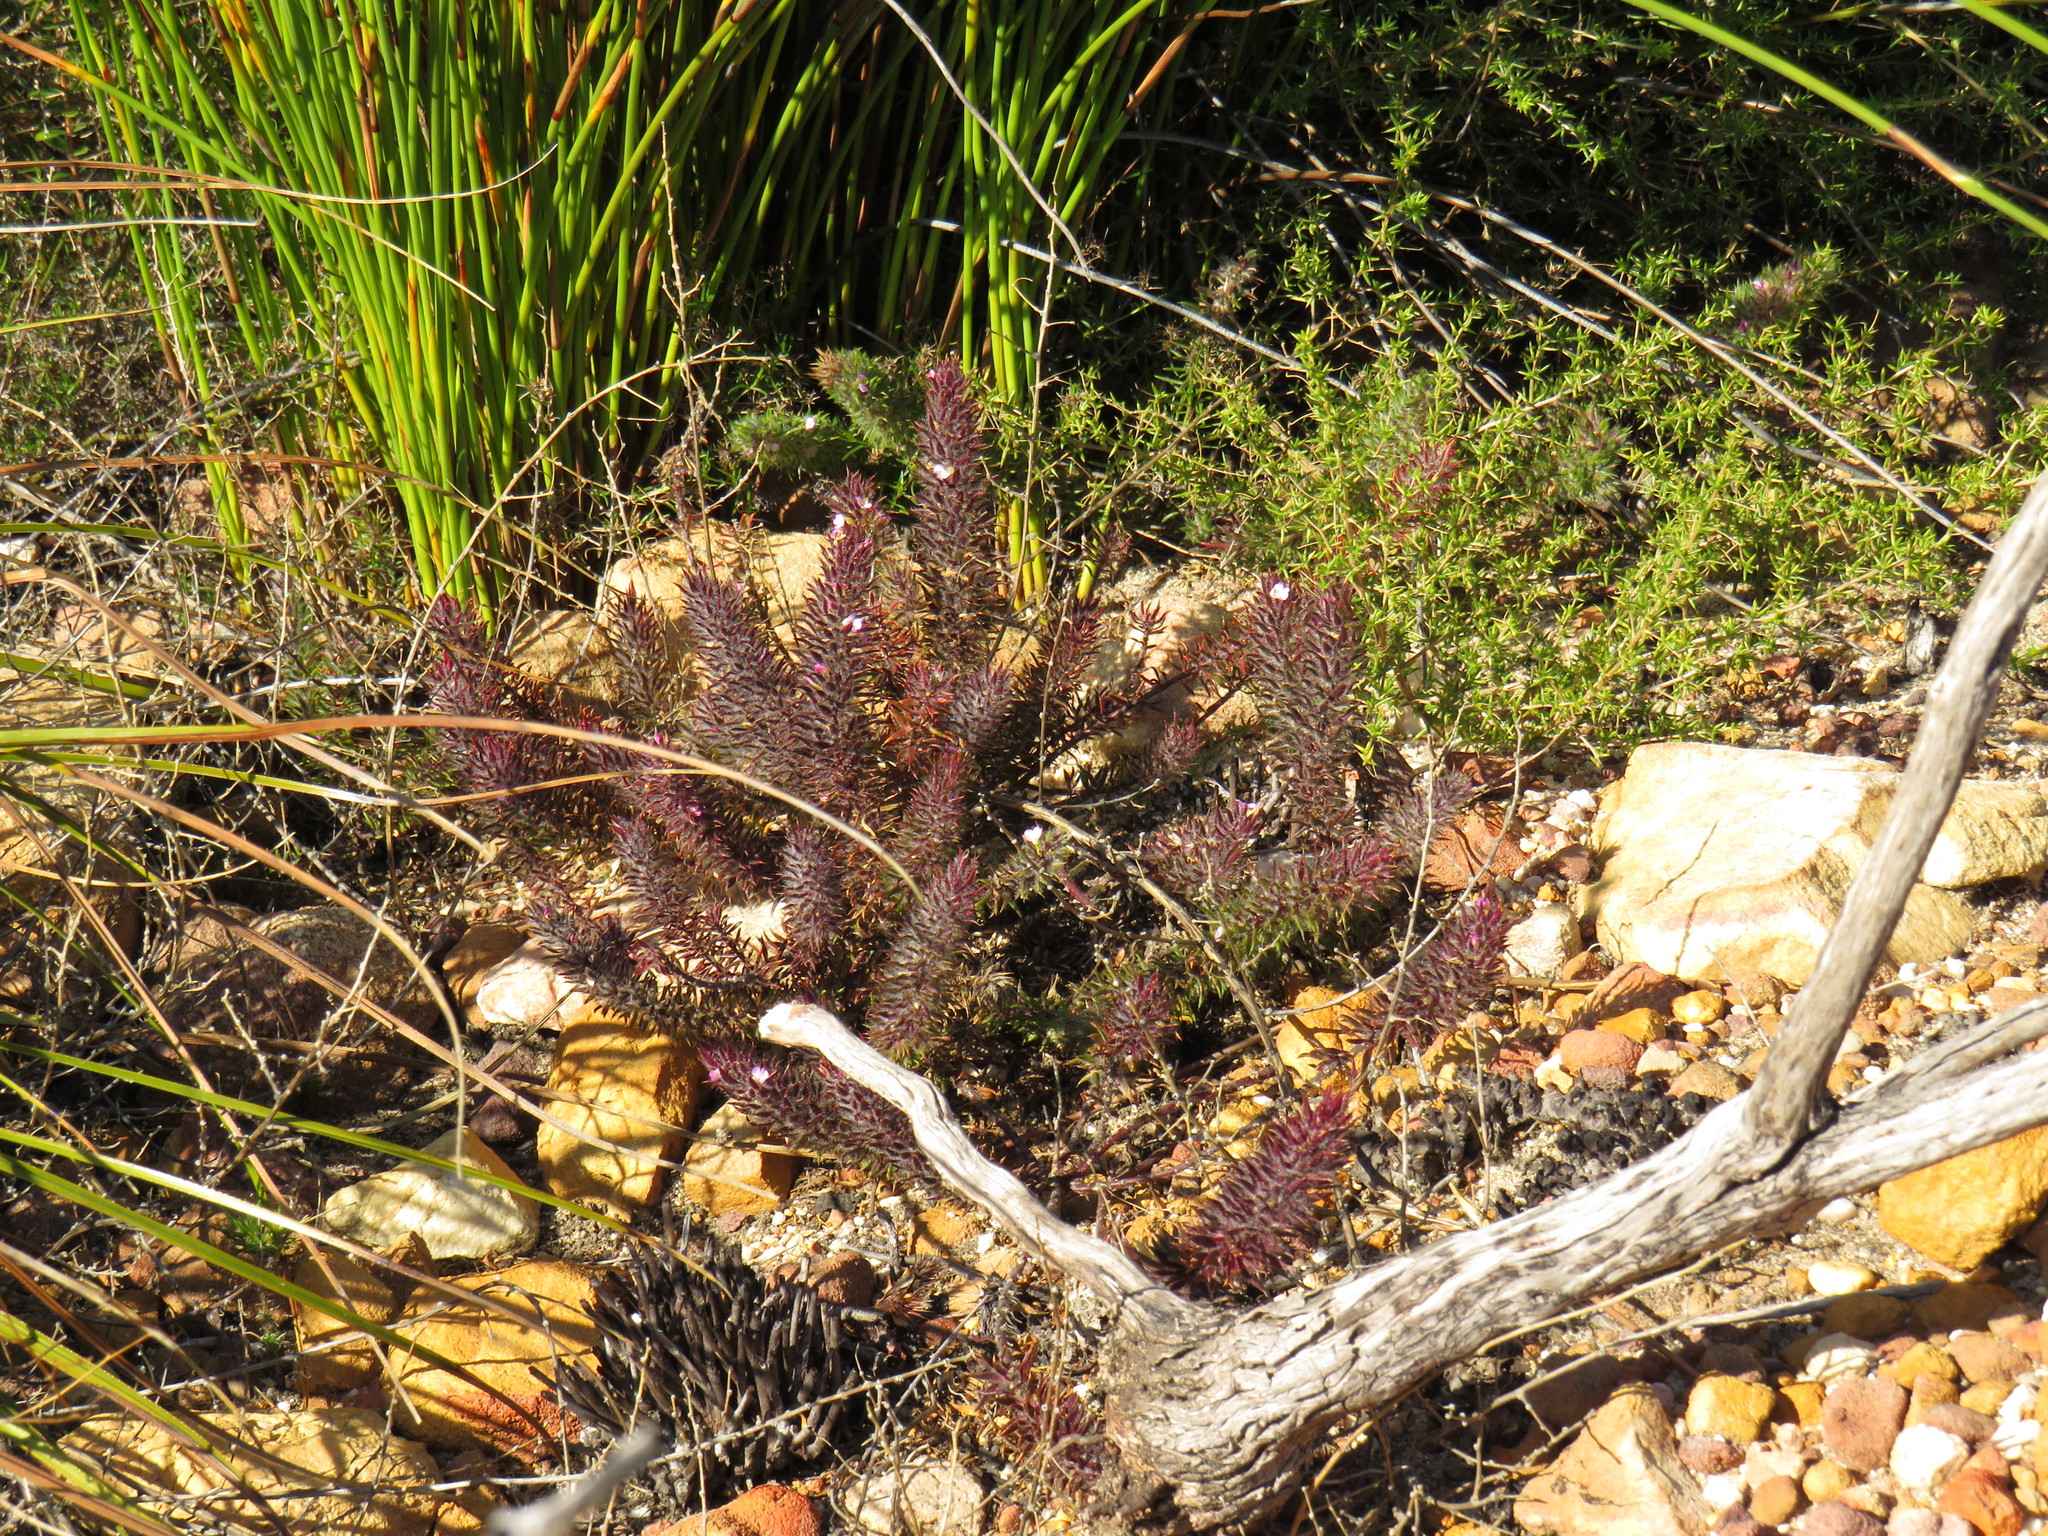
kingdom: Plantae
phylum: Tracheophyta
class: Magnoliopsida
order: Fabales
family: Polygalaceae
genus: Muraltia
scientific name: Muraltia thunbergii
